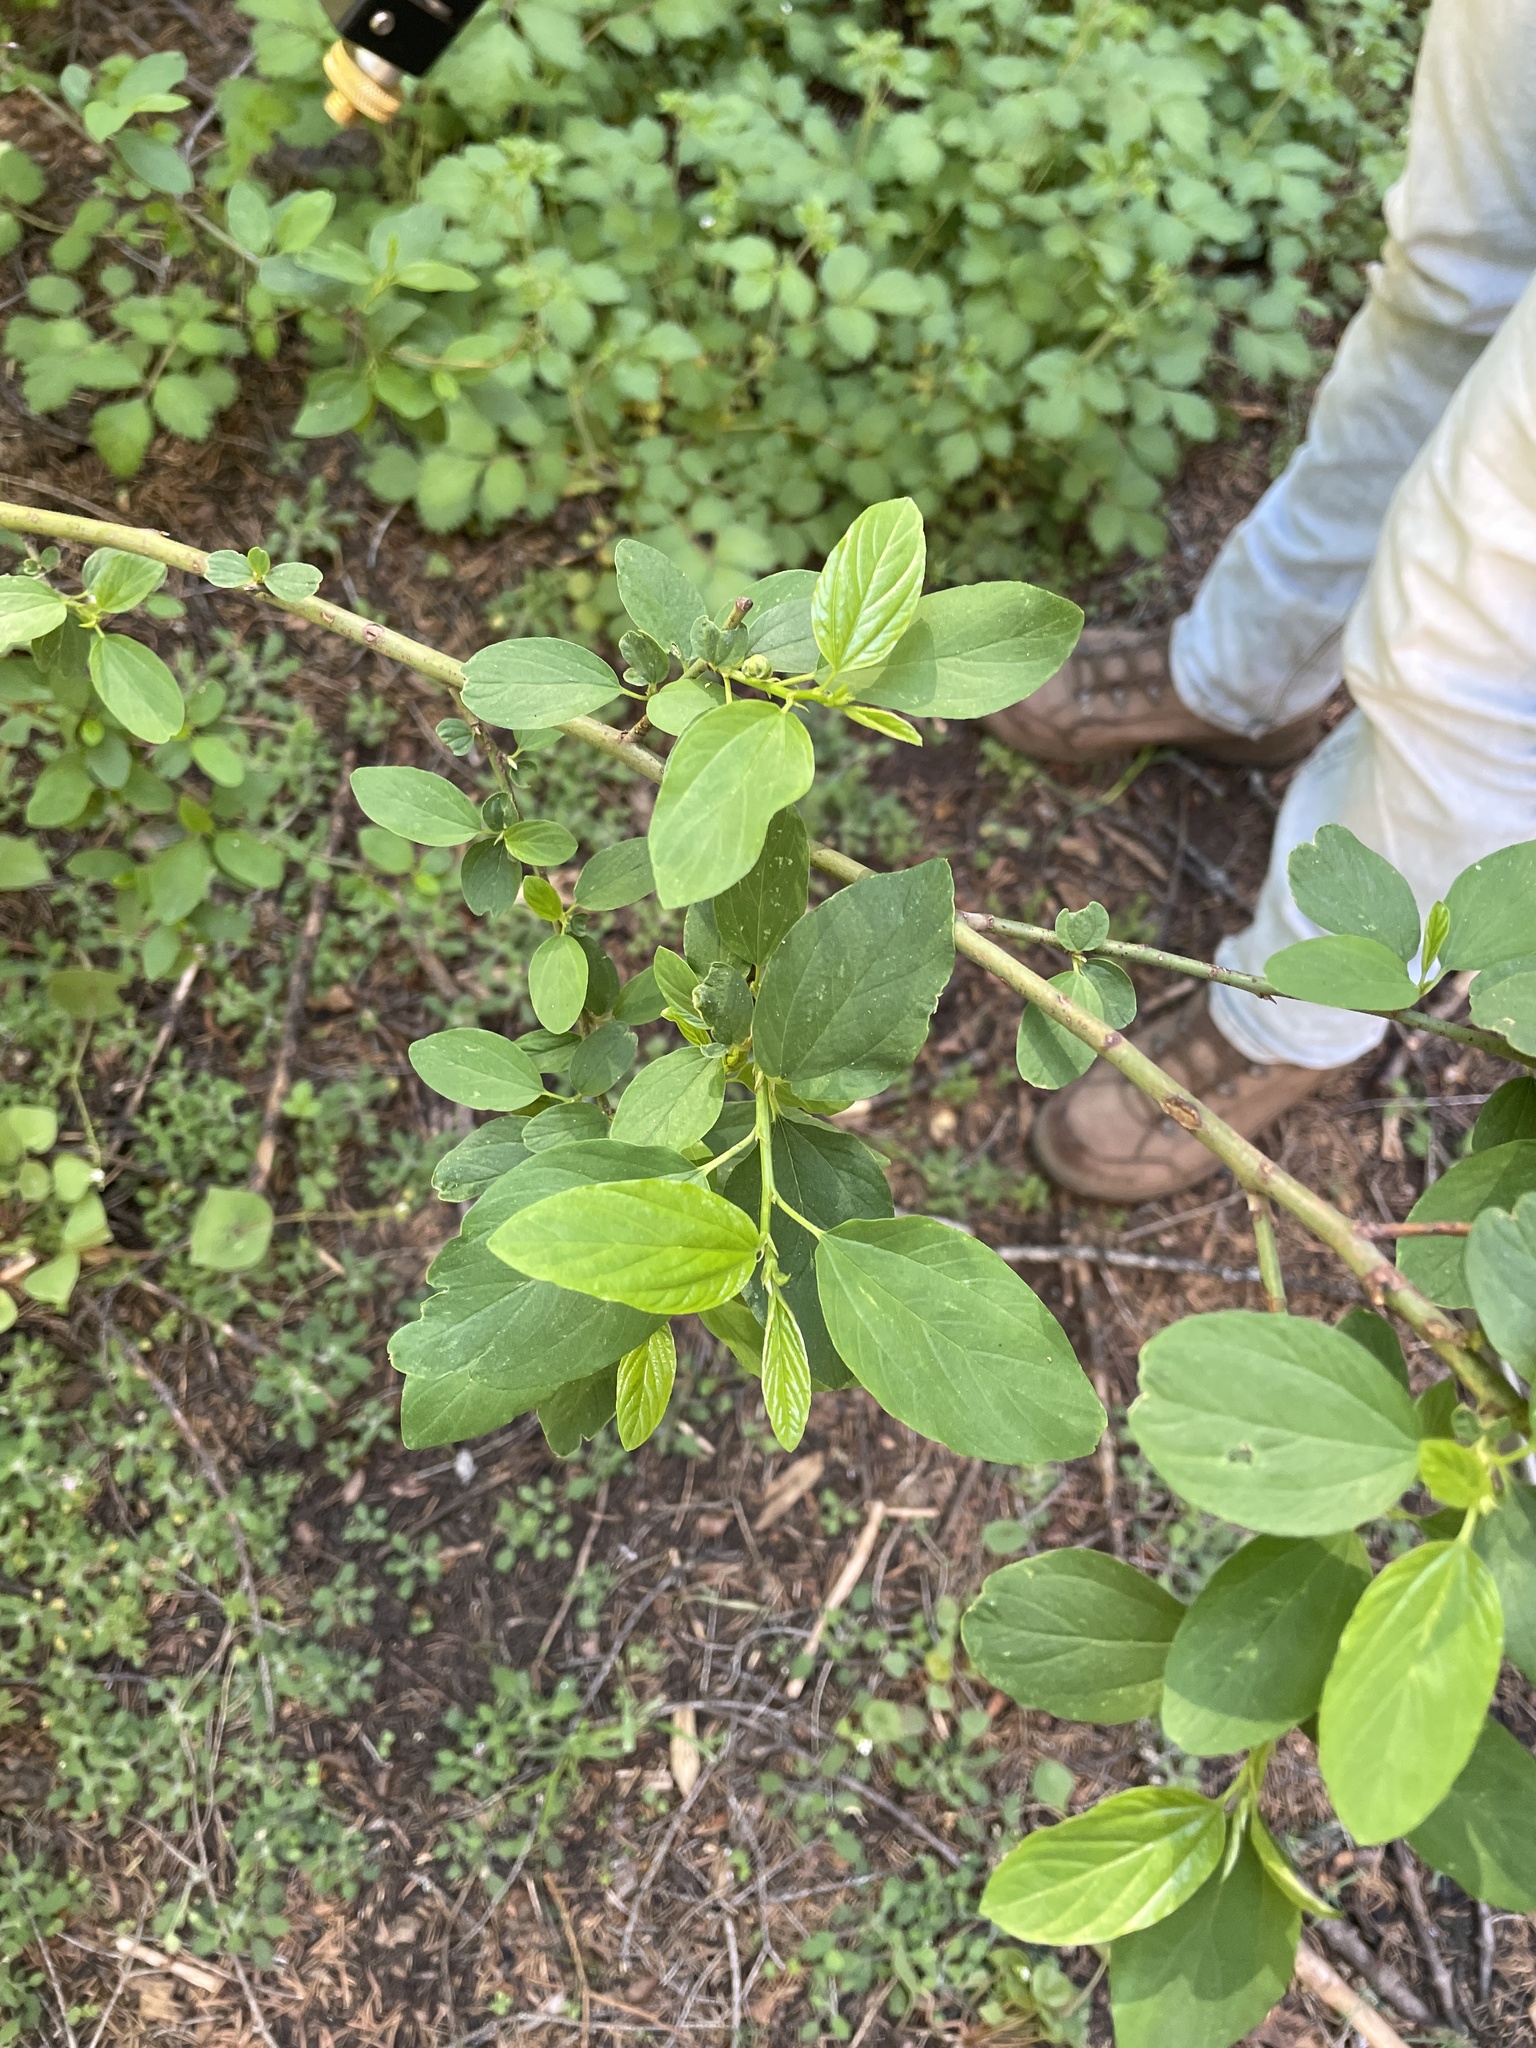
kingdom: Plantae
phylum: Tracheophyta
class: Magnoliopsida
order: Rosales
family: Rhamnaceae
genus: Ceanothus
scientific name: Ceanothus integerrimus
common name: Deerbrush ceanothus
